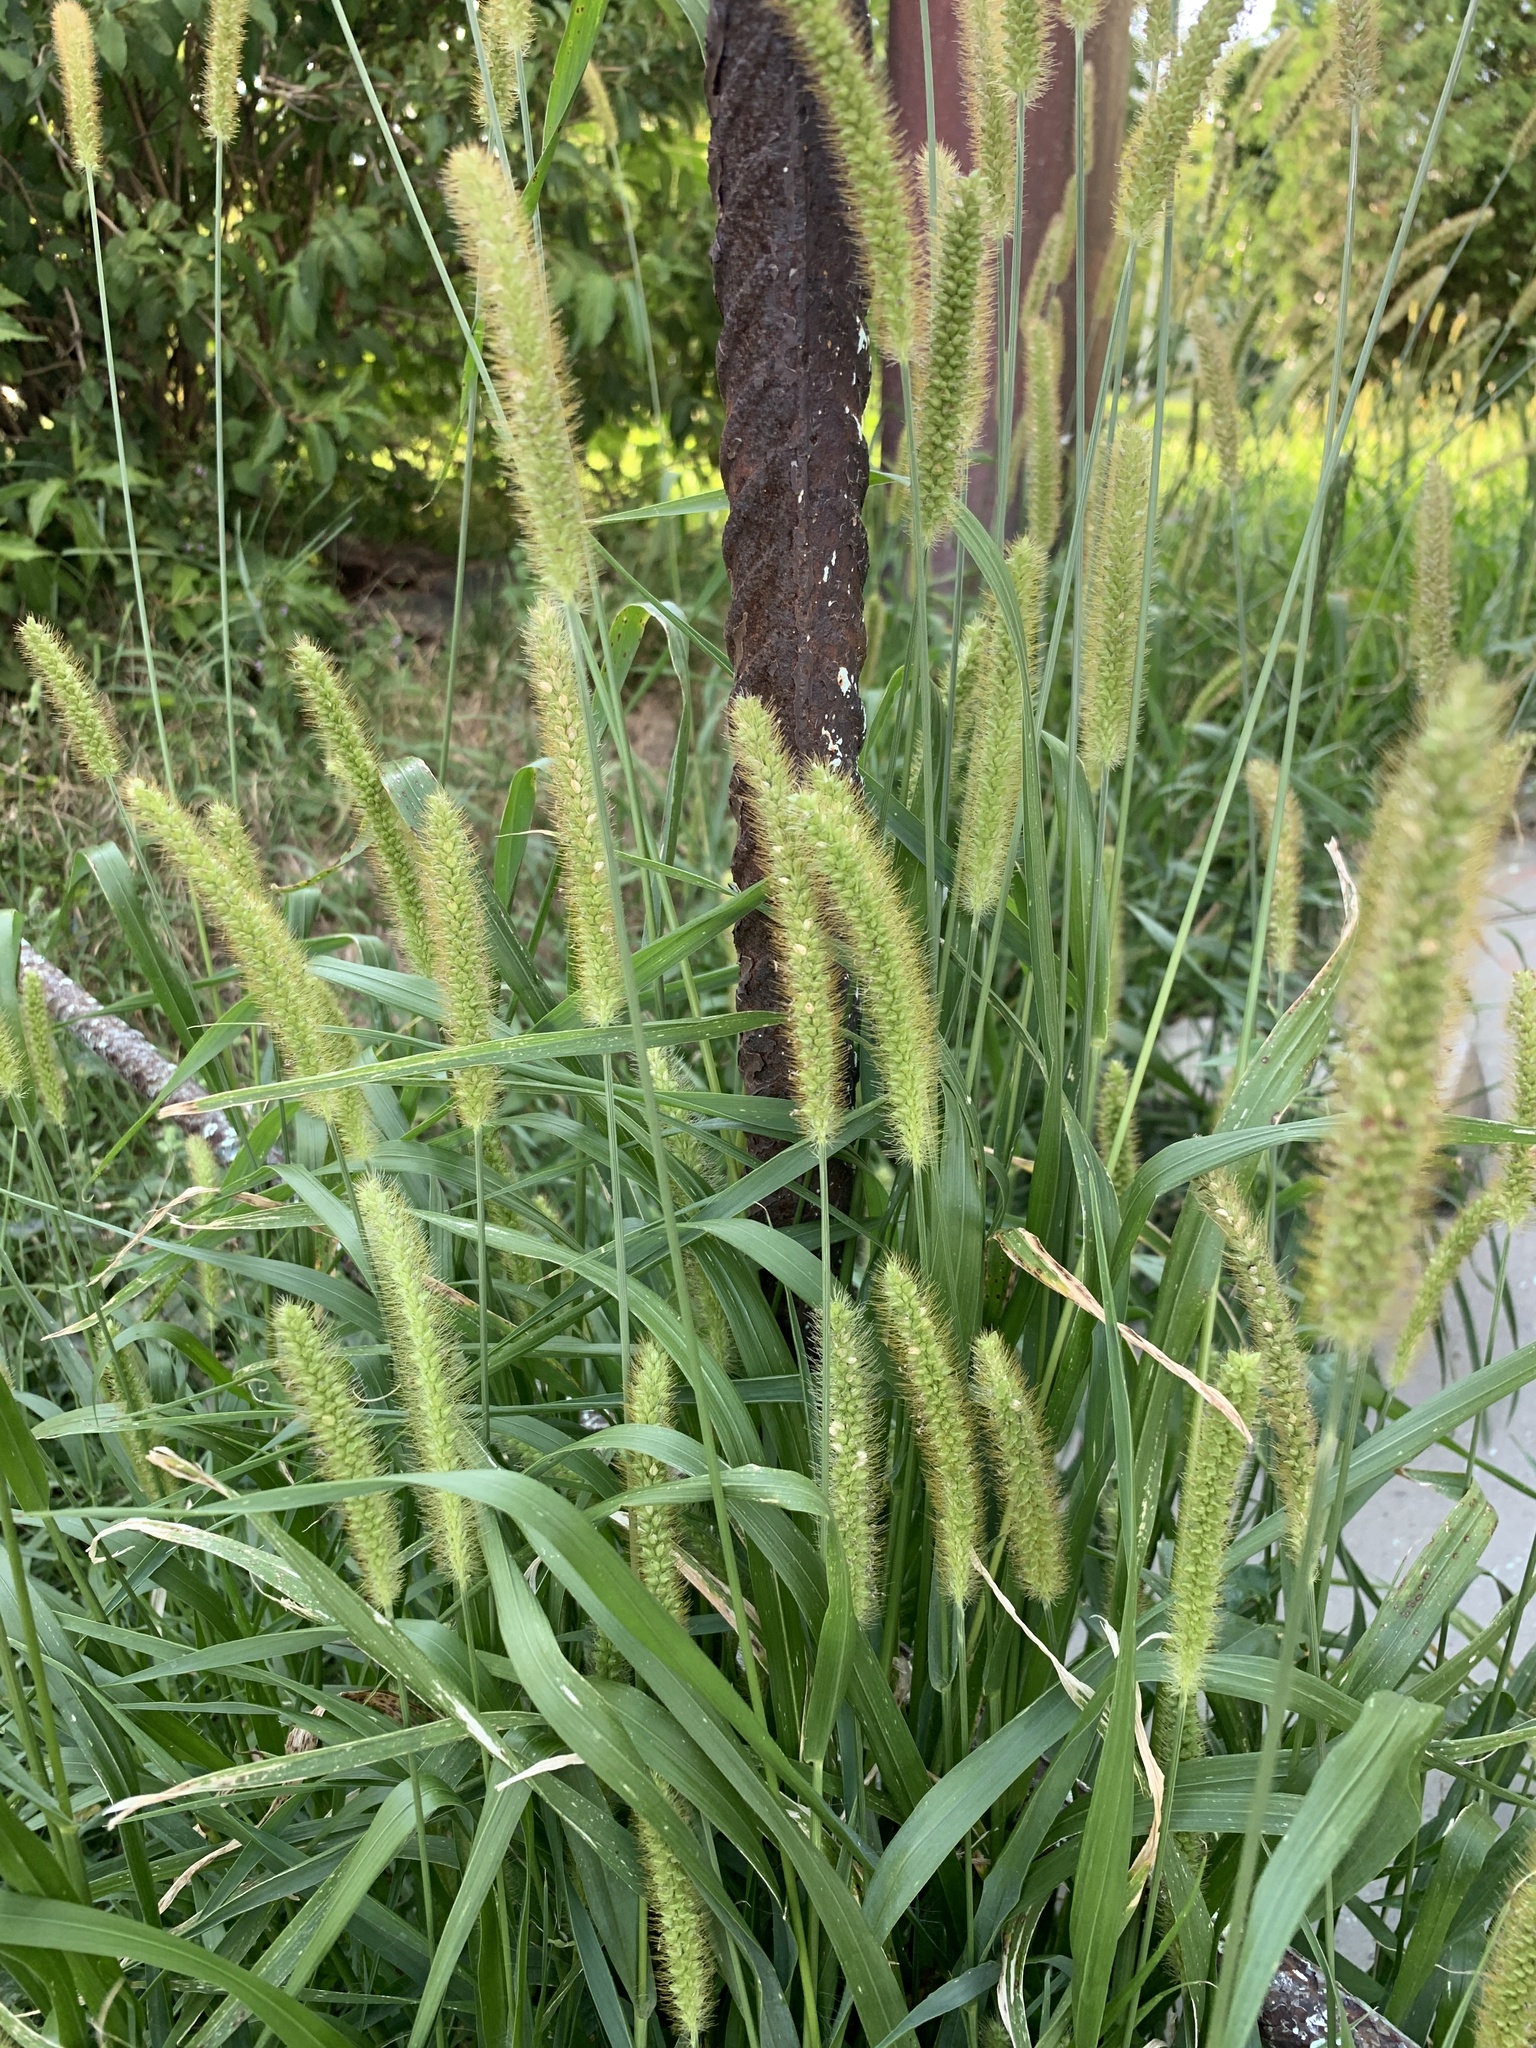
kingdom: Plantae
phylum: Tracheophyta
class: Liliopsida
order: Poales
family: Poaceae
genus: Setaria
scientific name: Setaria pumila
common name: Yellow bristle-grass
